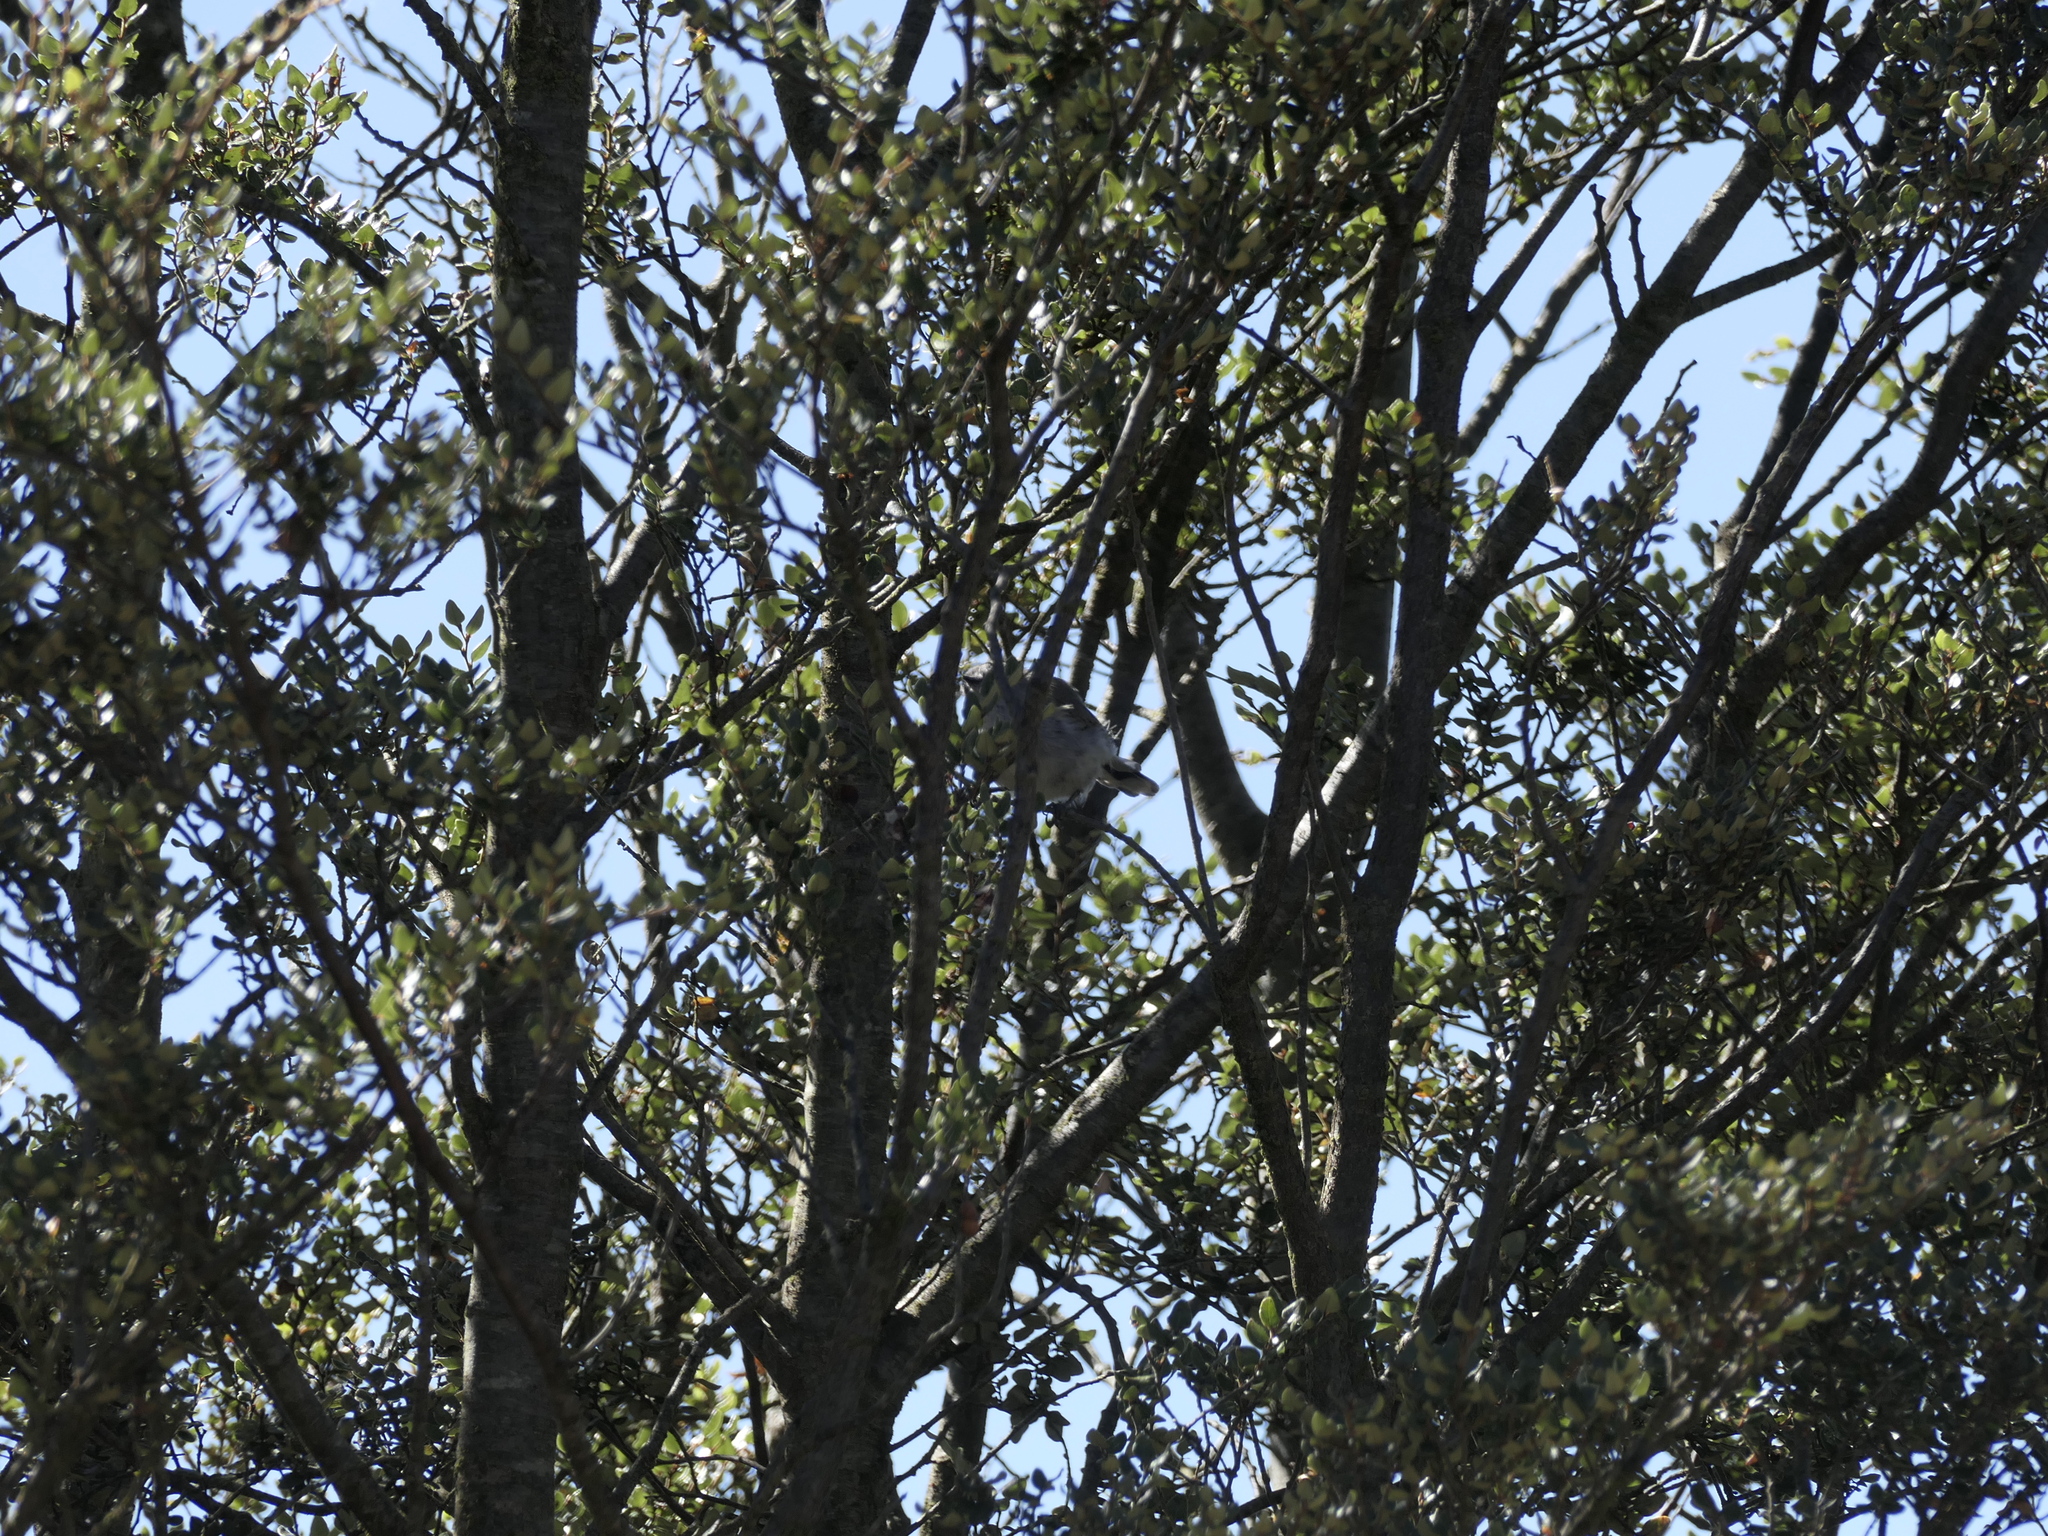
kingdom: Animalia
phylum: Chordata
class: Aves
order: Passeriformes
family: Acanthizidae
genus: Gerygone
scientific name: Gerygone igata
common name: Grey gerygone
